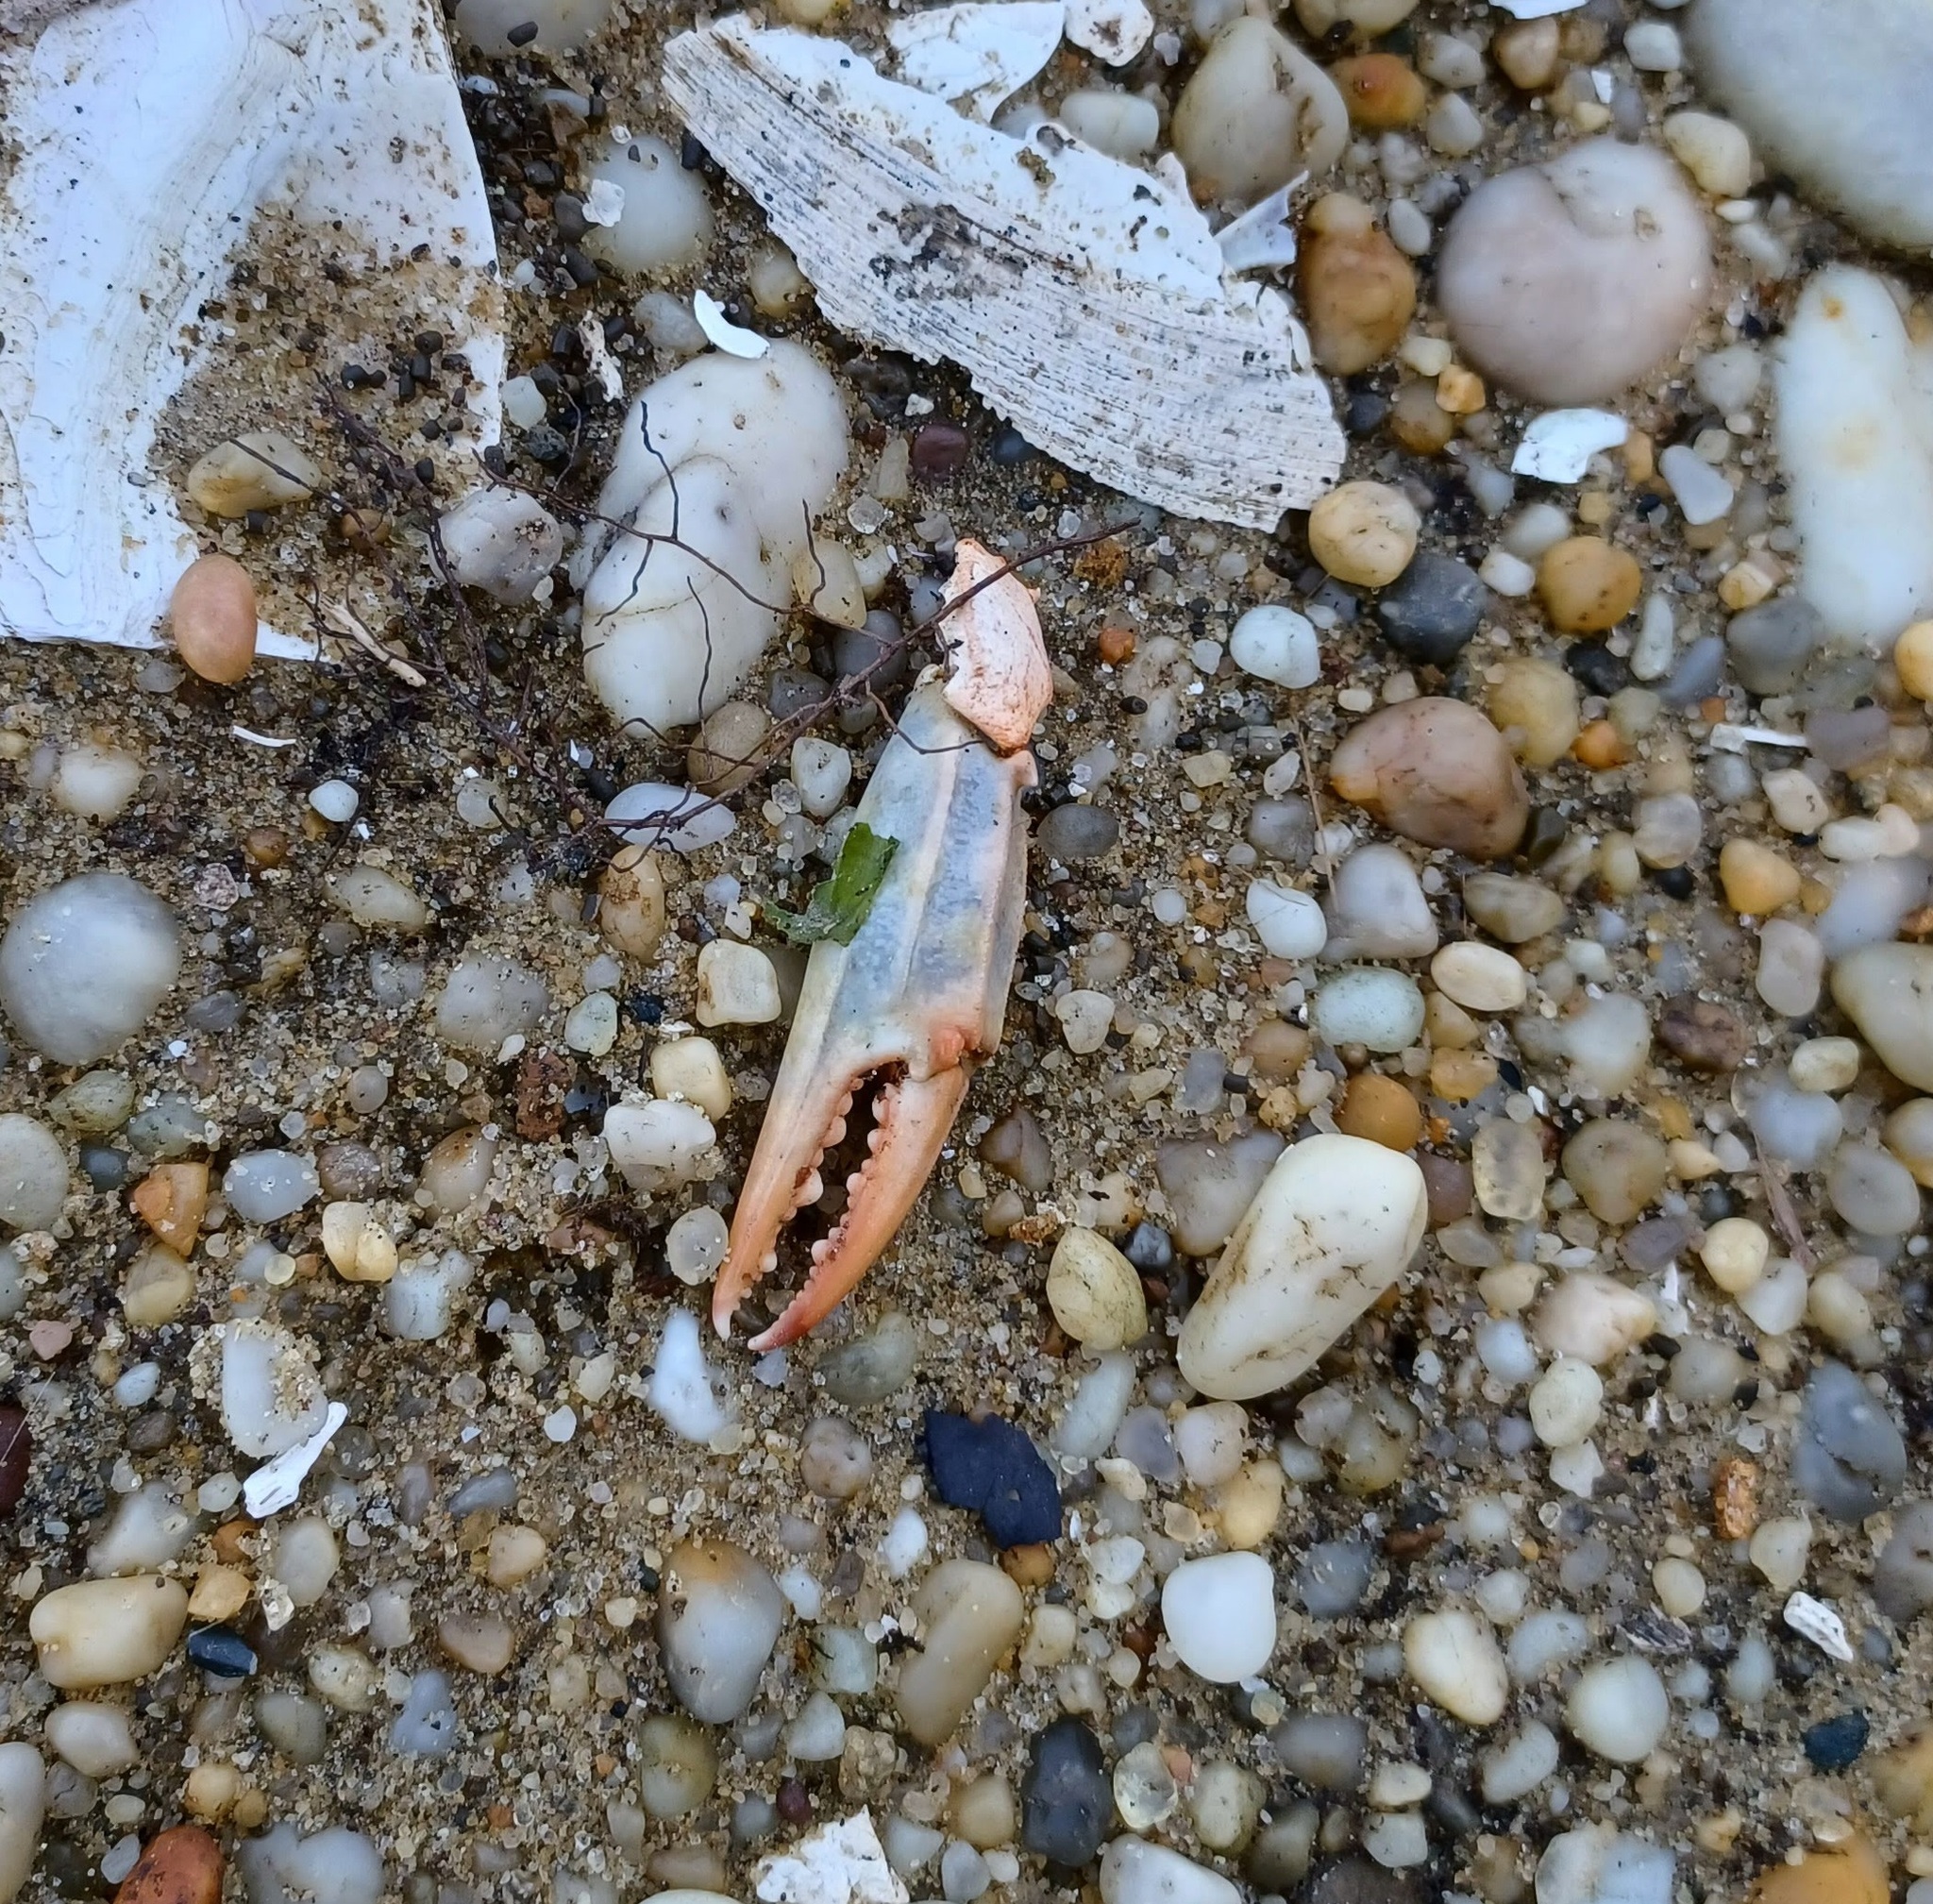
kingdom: Animalia
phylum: Arthropoda
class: Malacostraca
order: Decapoda
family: Portunidae
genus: Callinectes
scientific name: Callinectes sapidus
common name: Blue crab
